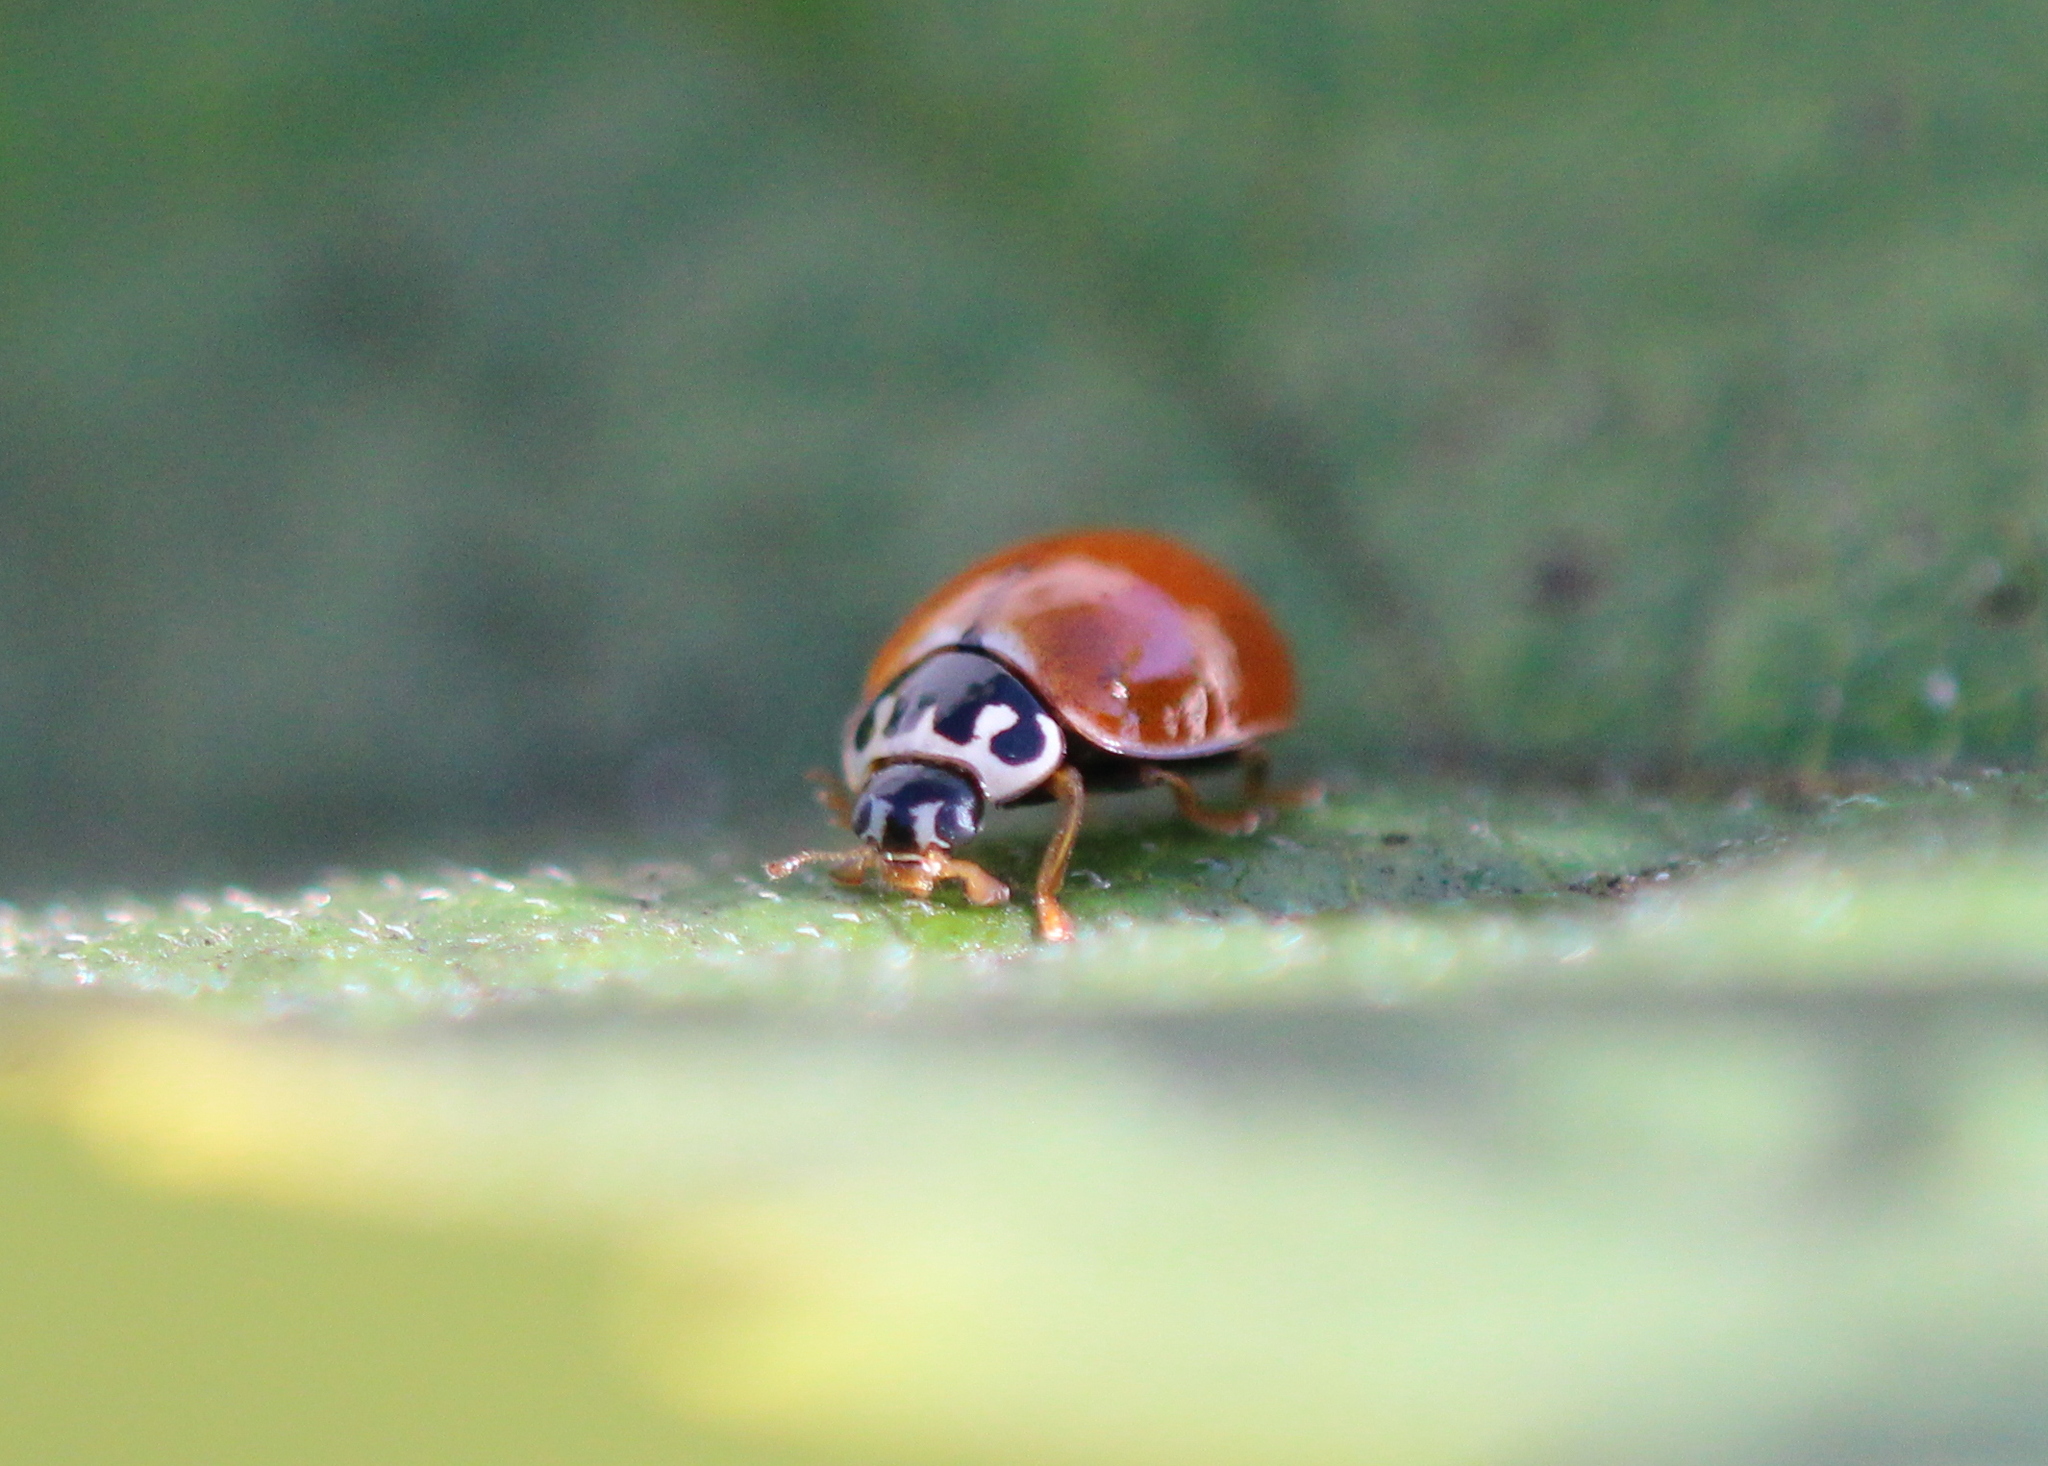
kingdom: Animalia
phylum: Arthropoda
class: Insecta
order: Coleoptera
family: Coccinellidae
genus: Cycloneda
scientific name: Cycloneda munda
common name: Polished lady beetle
